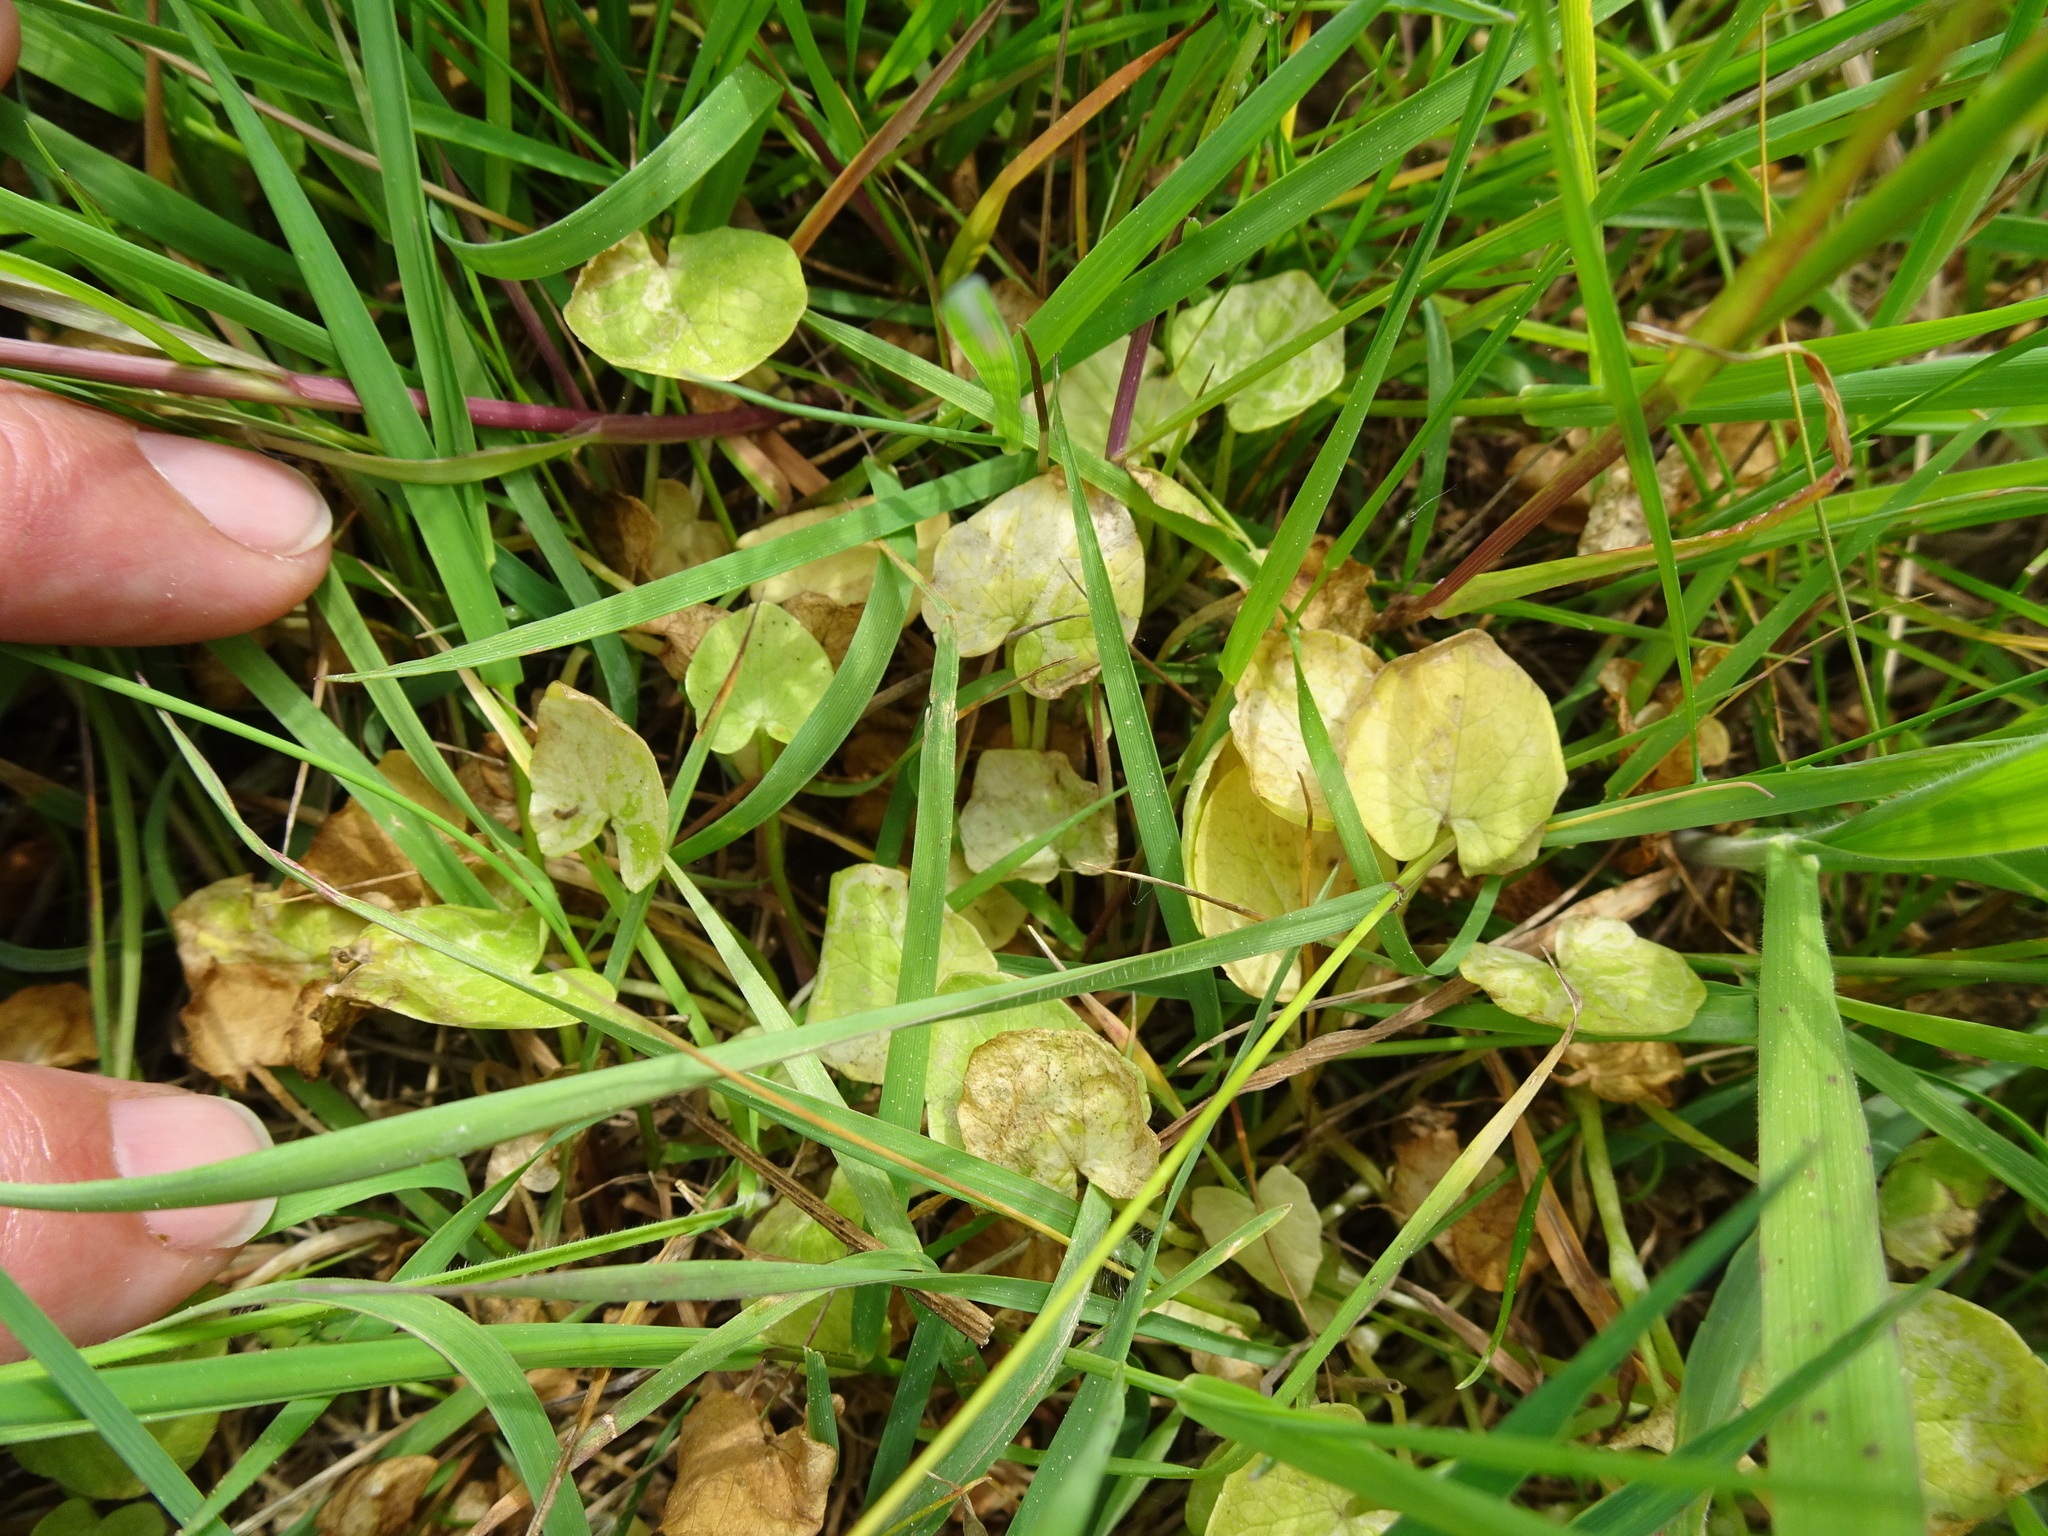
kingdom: Plantae
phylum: Tracheophyta
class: Magnoliopsida
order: Ranunculales
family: Ranunculaceae
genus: Ficaria
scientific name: Ficaria verna
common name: Lesser celandine
